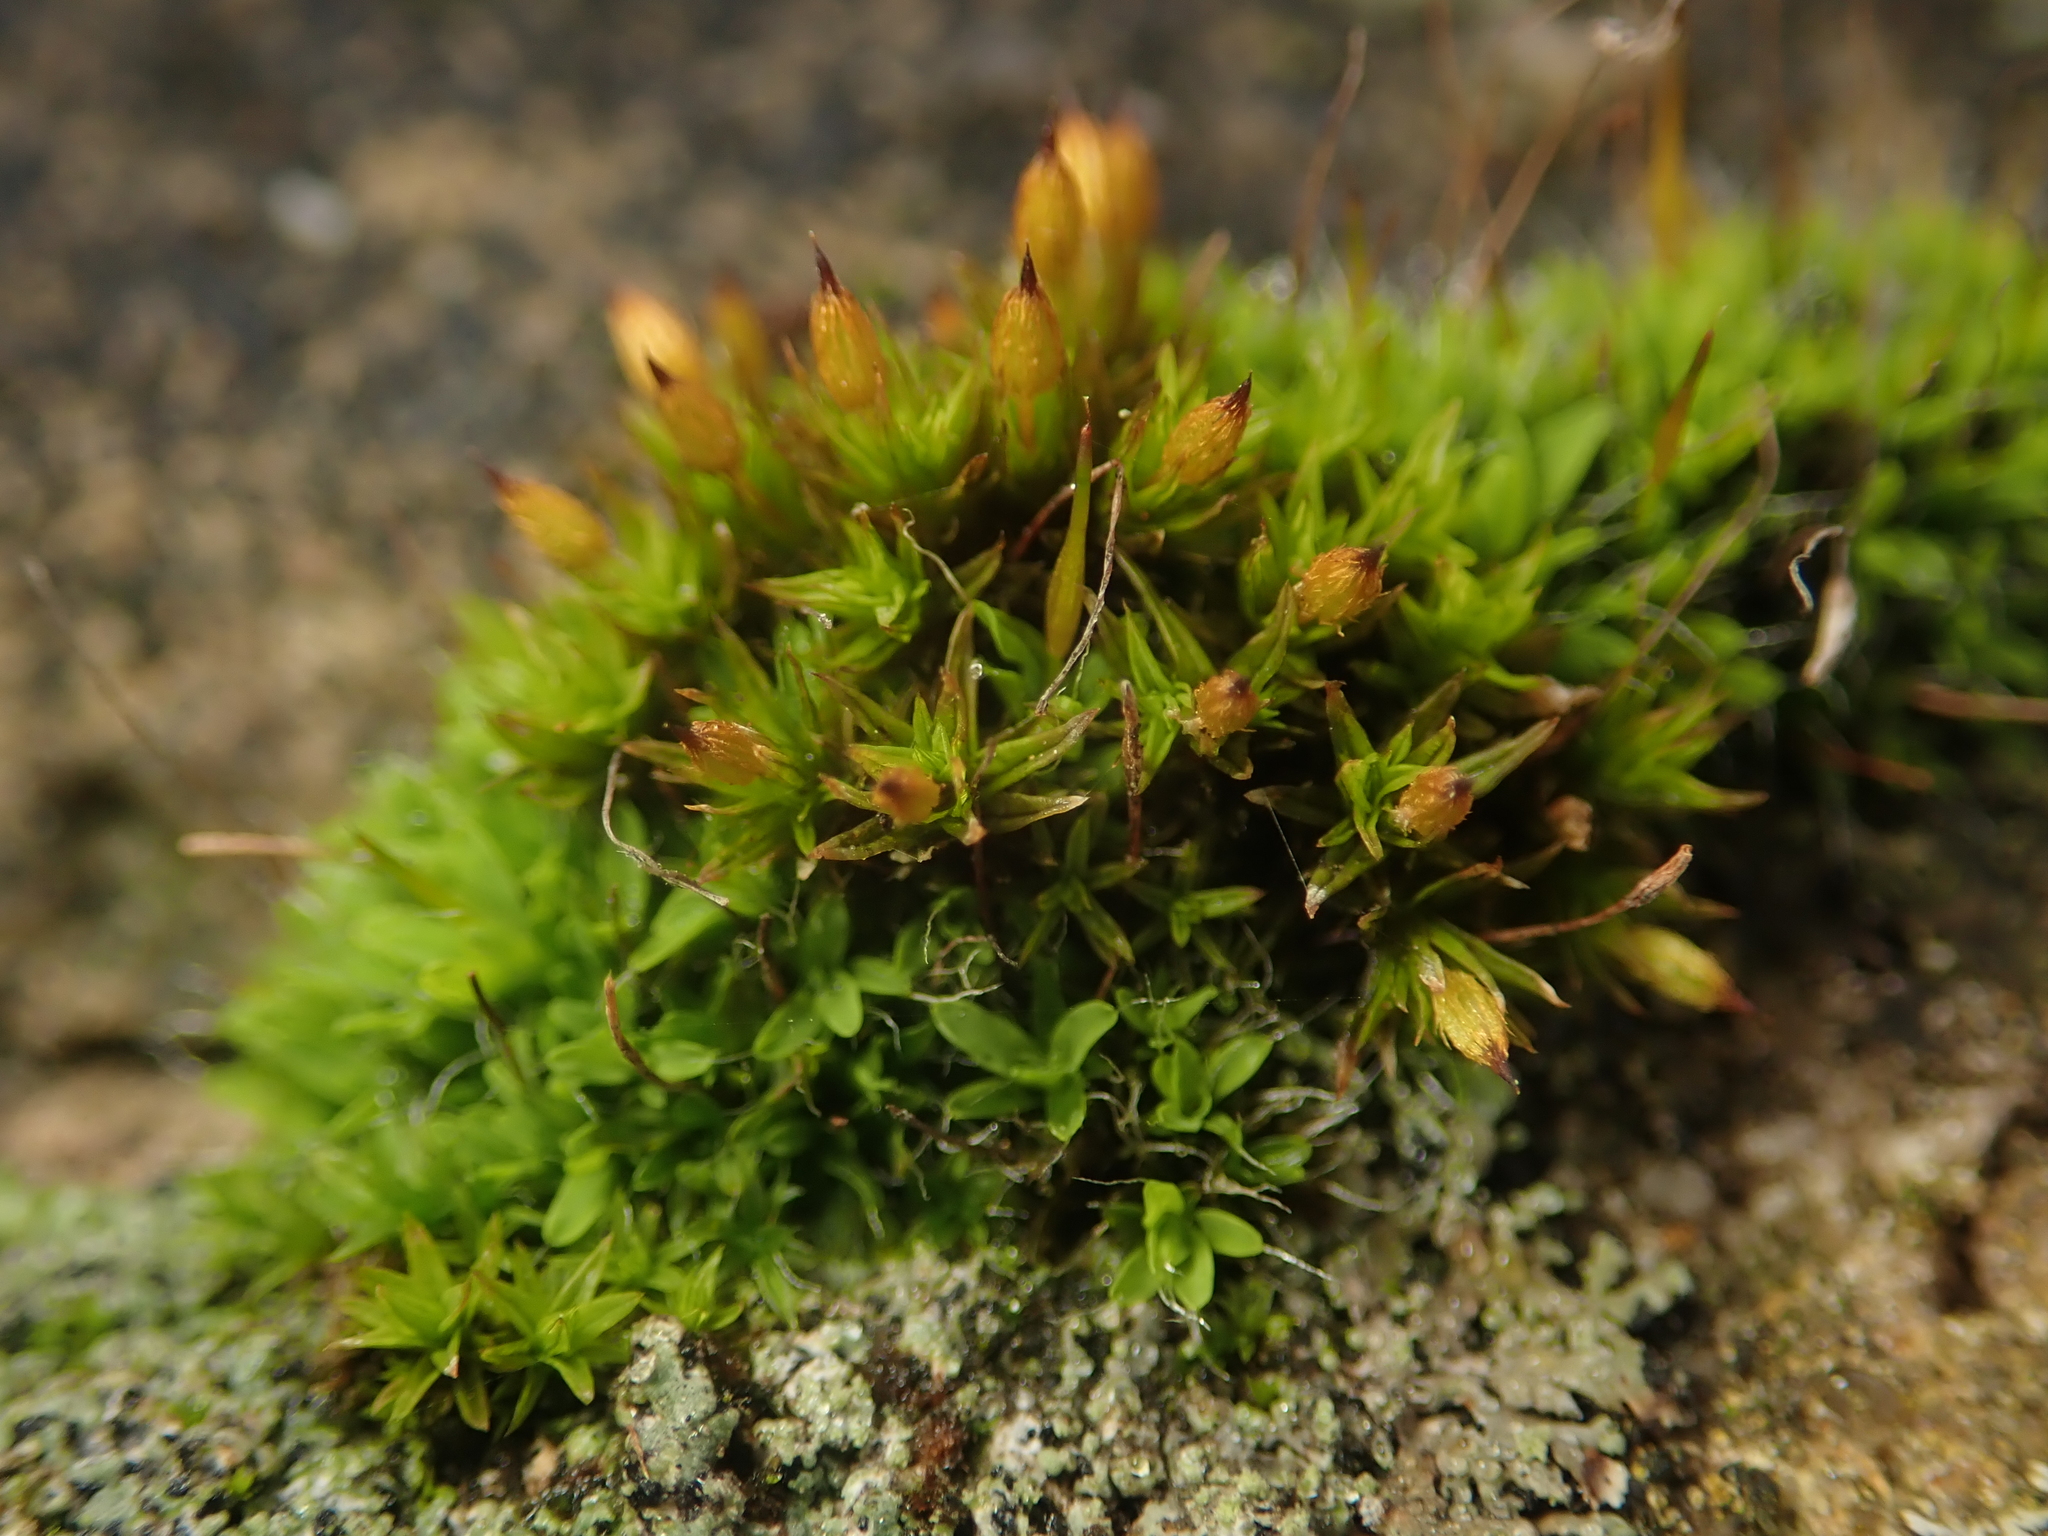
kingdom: Plantae
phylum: Bryophyta
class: Bryopsida
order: Orthotrichales
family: Orthotrichaceae
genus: Orthotrichum
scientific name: Orthotrichum anomalum
